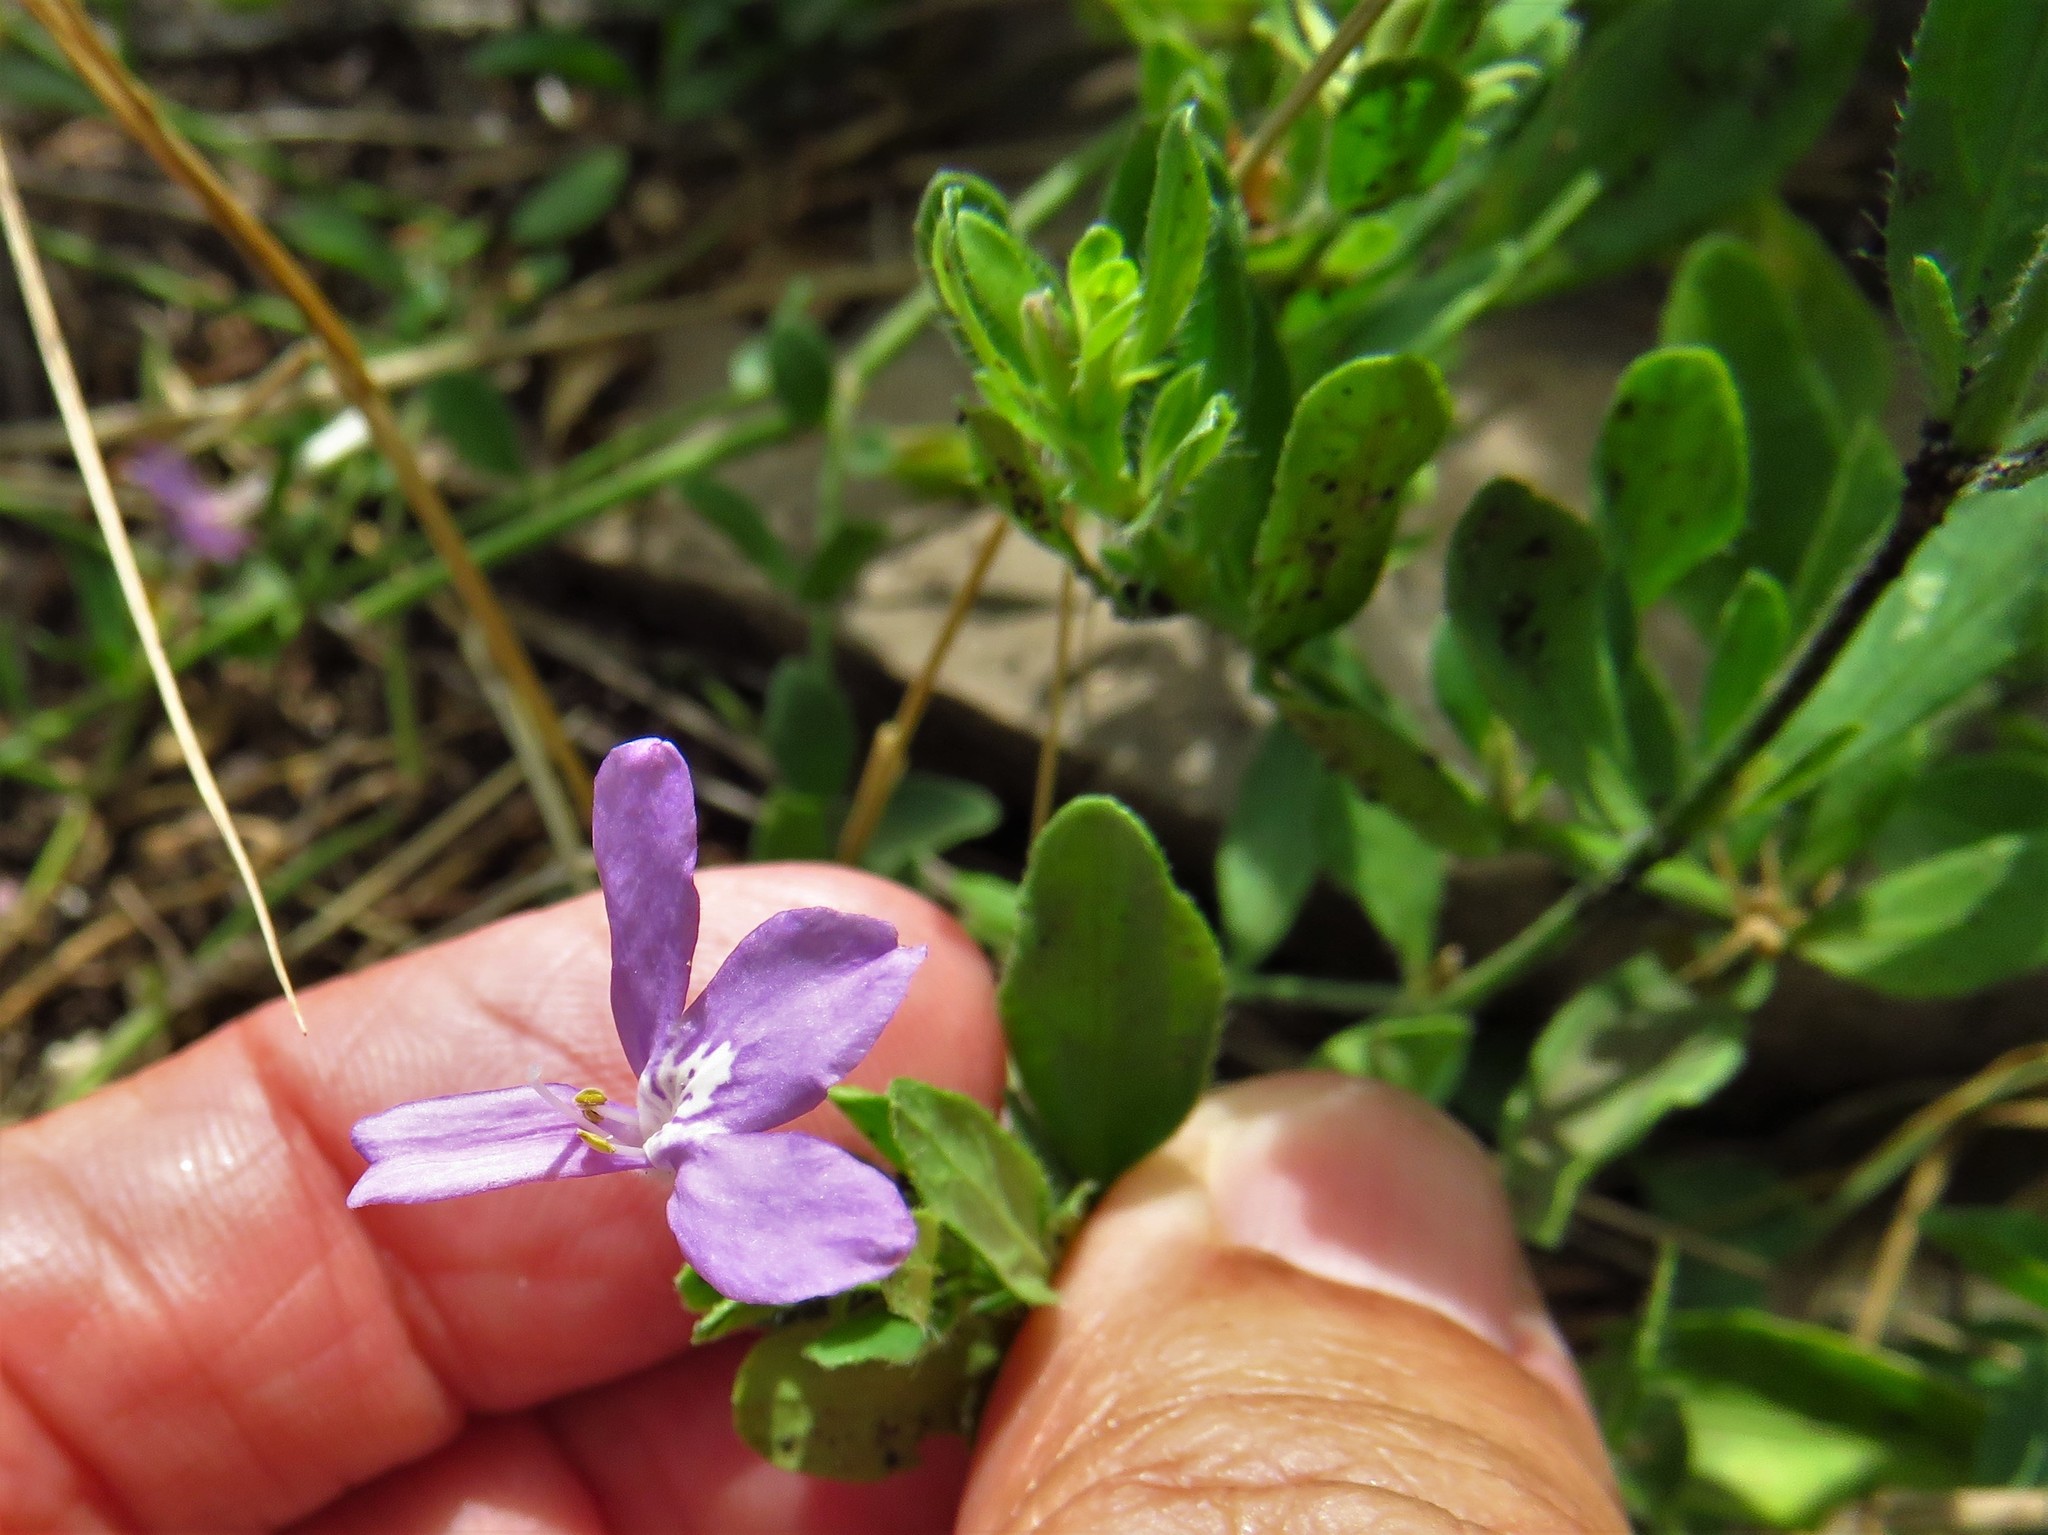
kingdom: Plantae
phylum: Tracheophyta
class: Magnoliopsida
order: Lamiales
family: Acanthaceae
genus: Justicia
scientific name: Justicia pilosella
